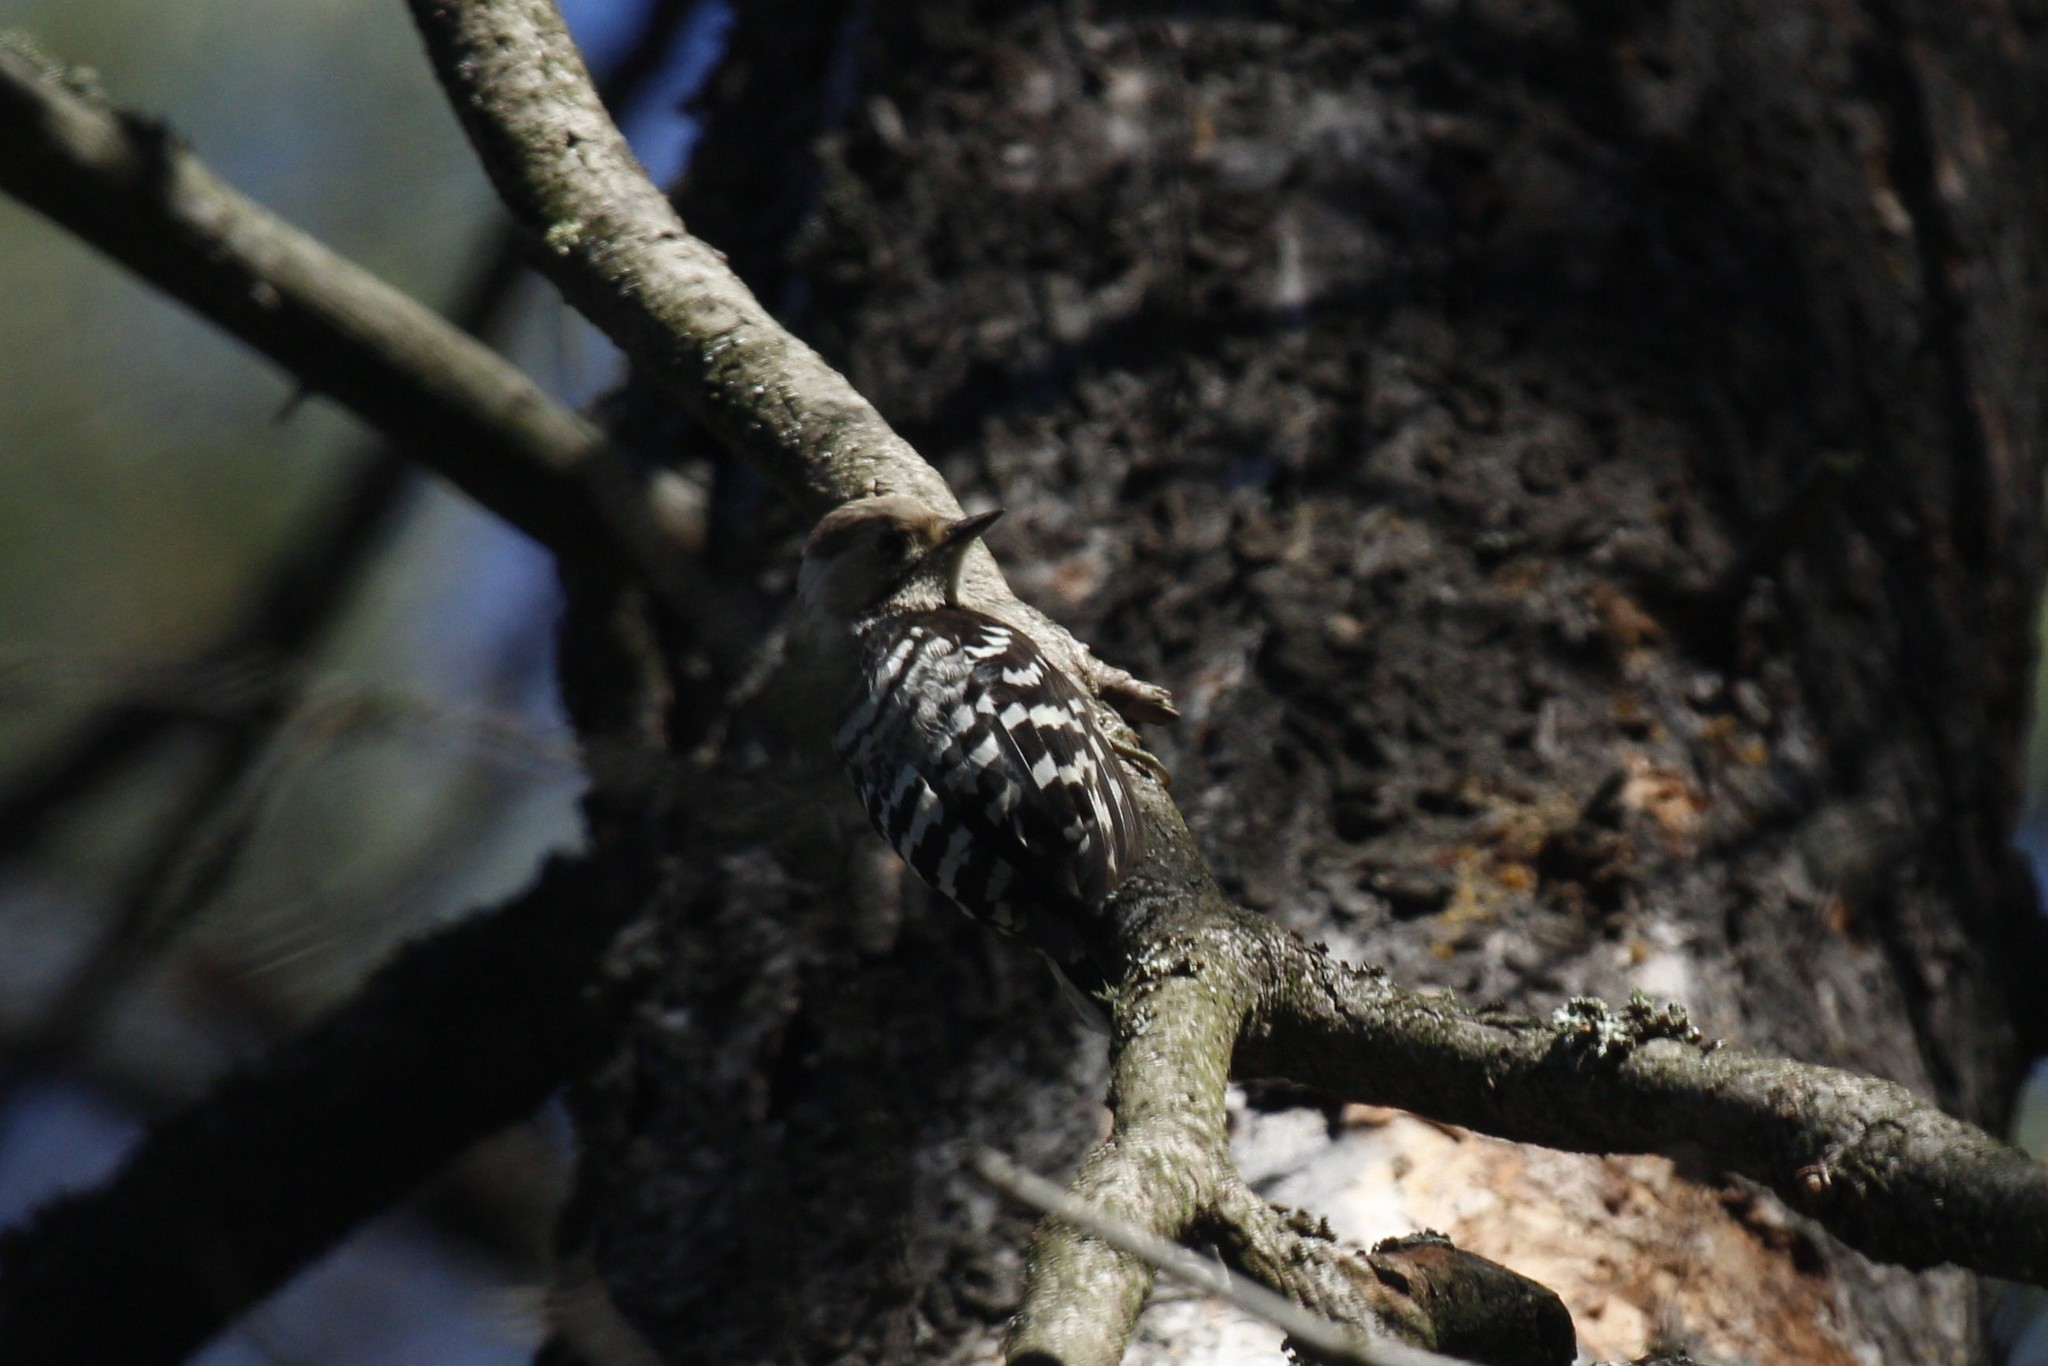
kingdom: Animalia
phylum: Chordata
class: Aves
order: Piciformes
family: Picidae
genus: Dryobates
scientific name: Dryobates minor
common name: Lesser spotted woodpecker
